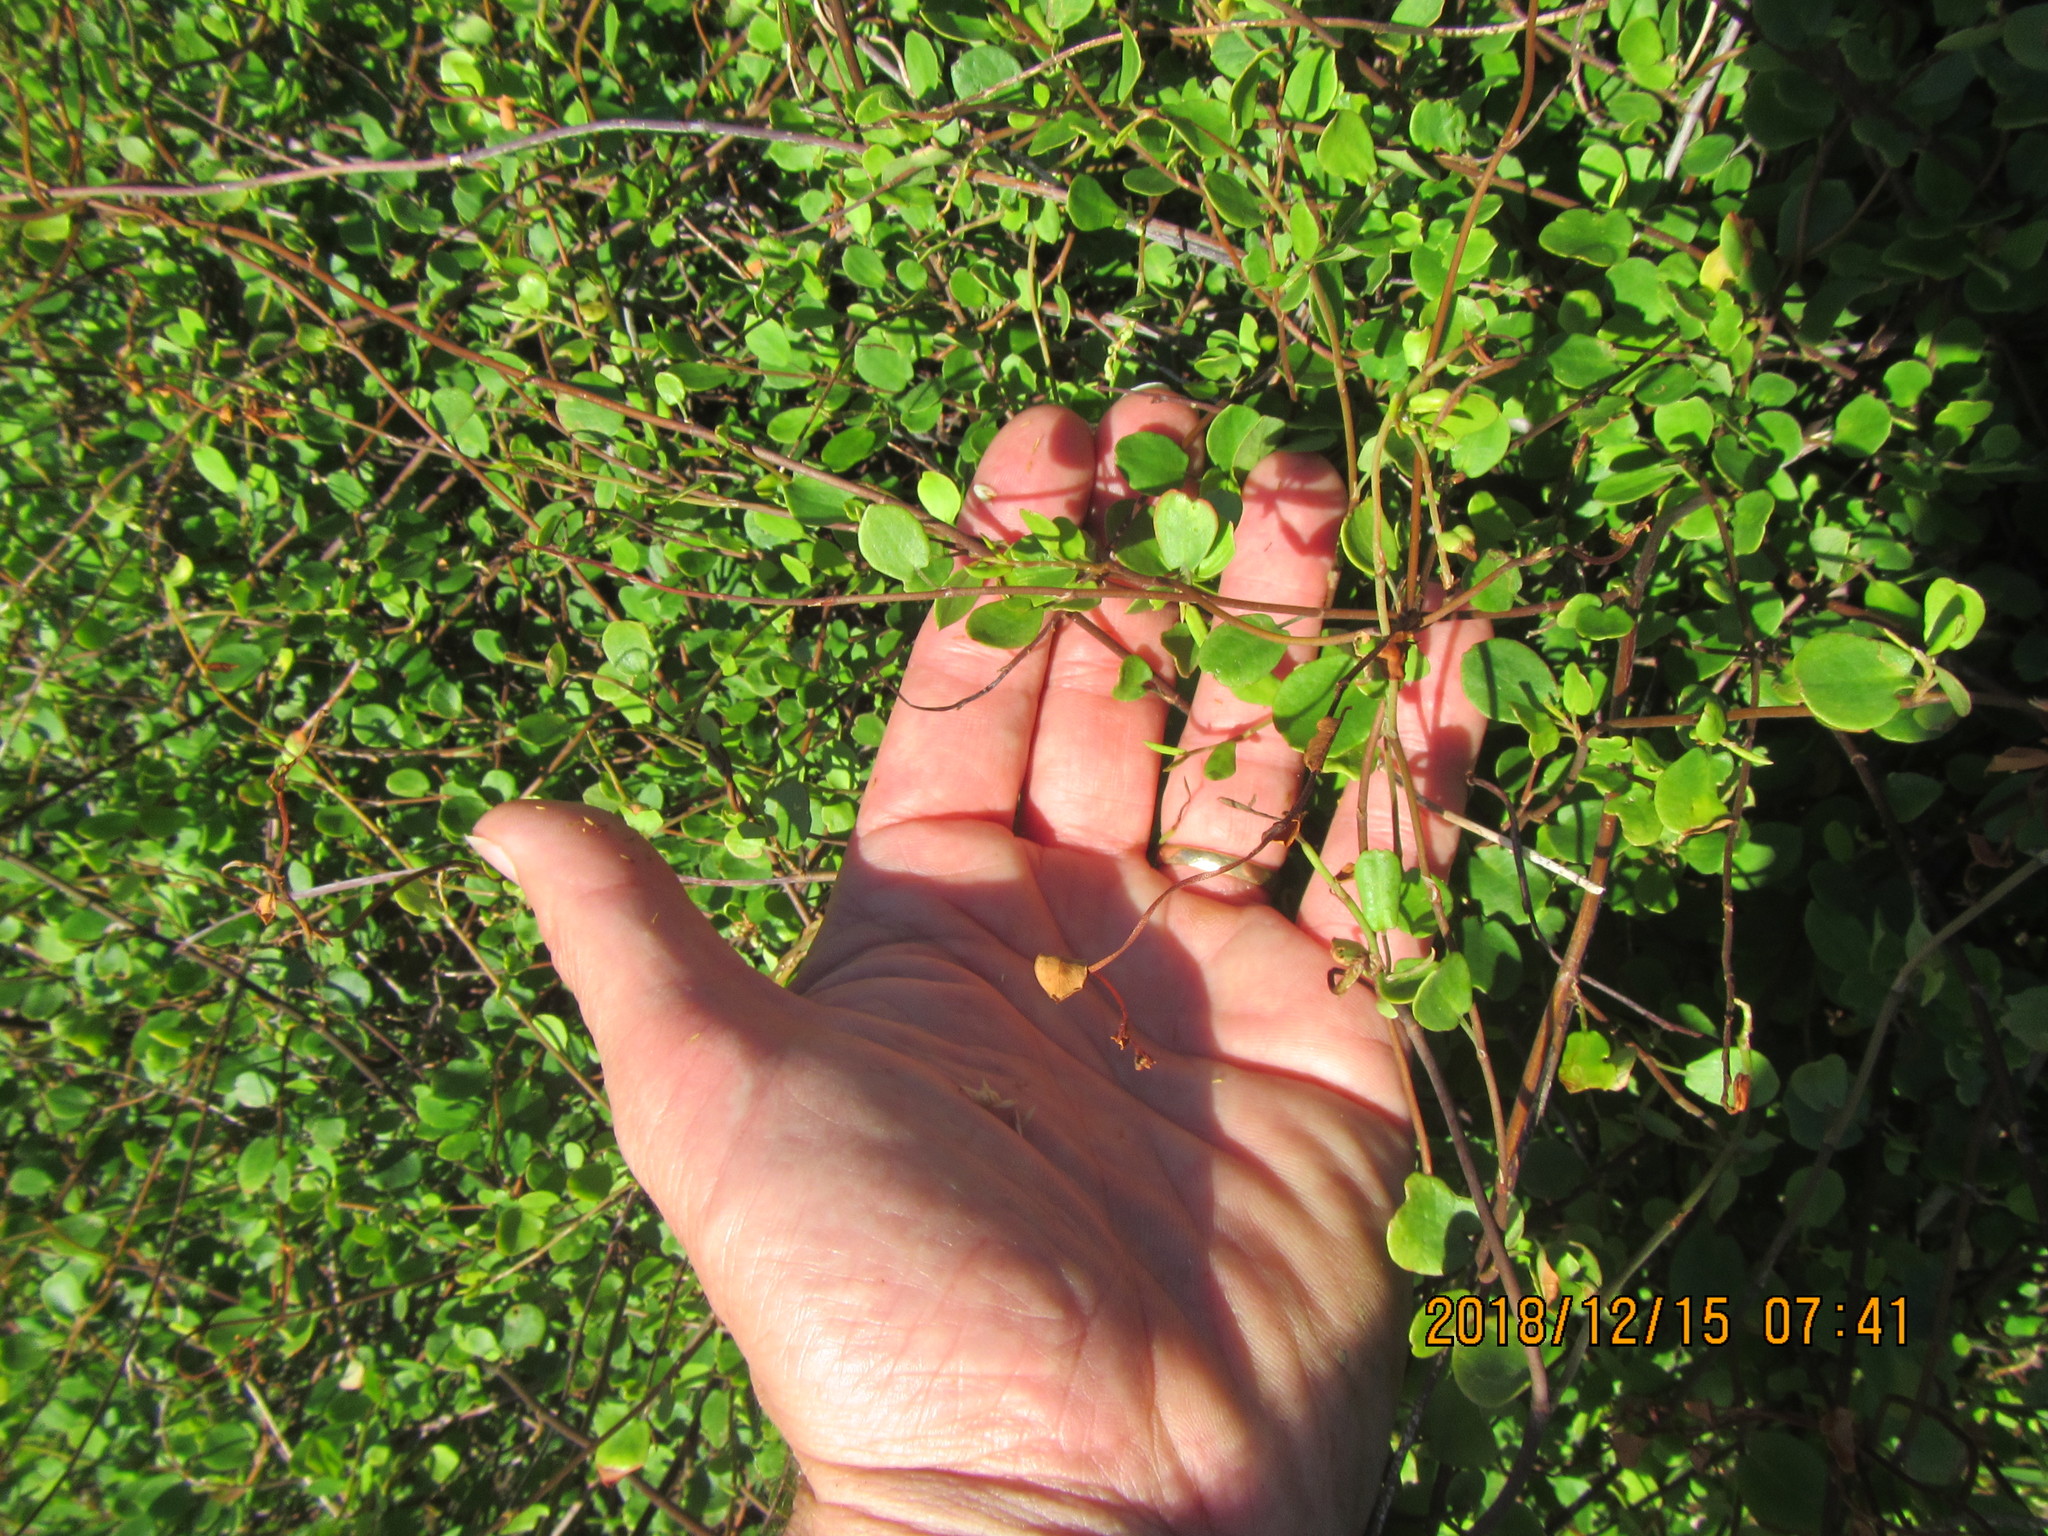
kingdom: Plantae
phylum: Tracheophyta
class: Magnoliopsida
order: Caryophyllales
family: Polygonaceae
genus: Muehlenbeckia
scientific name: Muehlenbeckia complexa
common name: Wireplant
